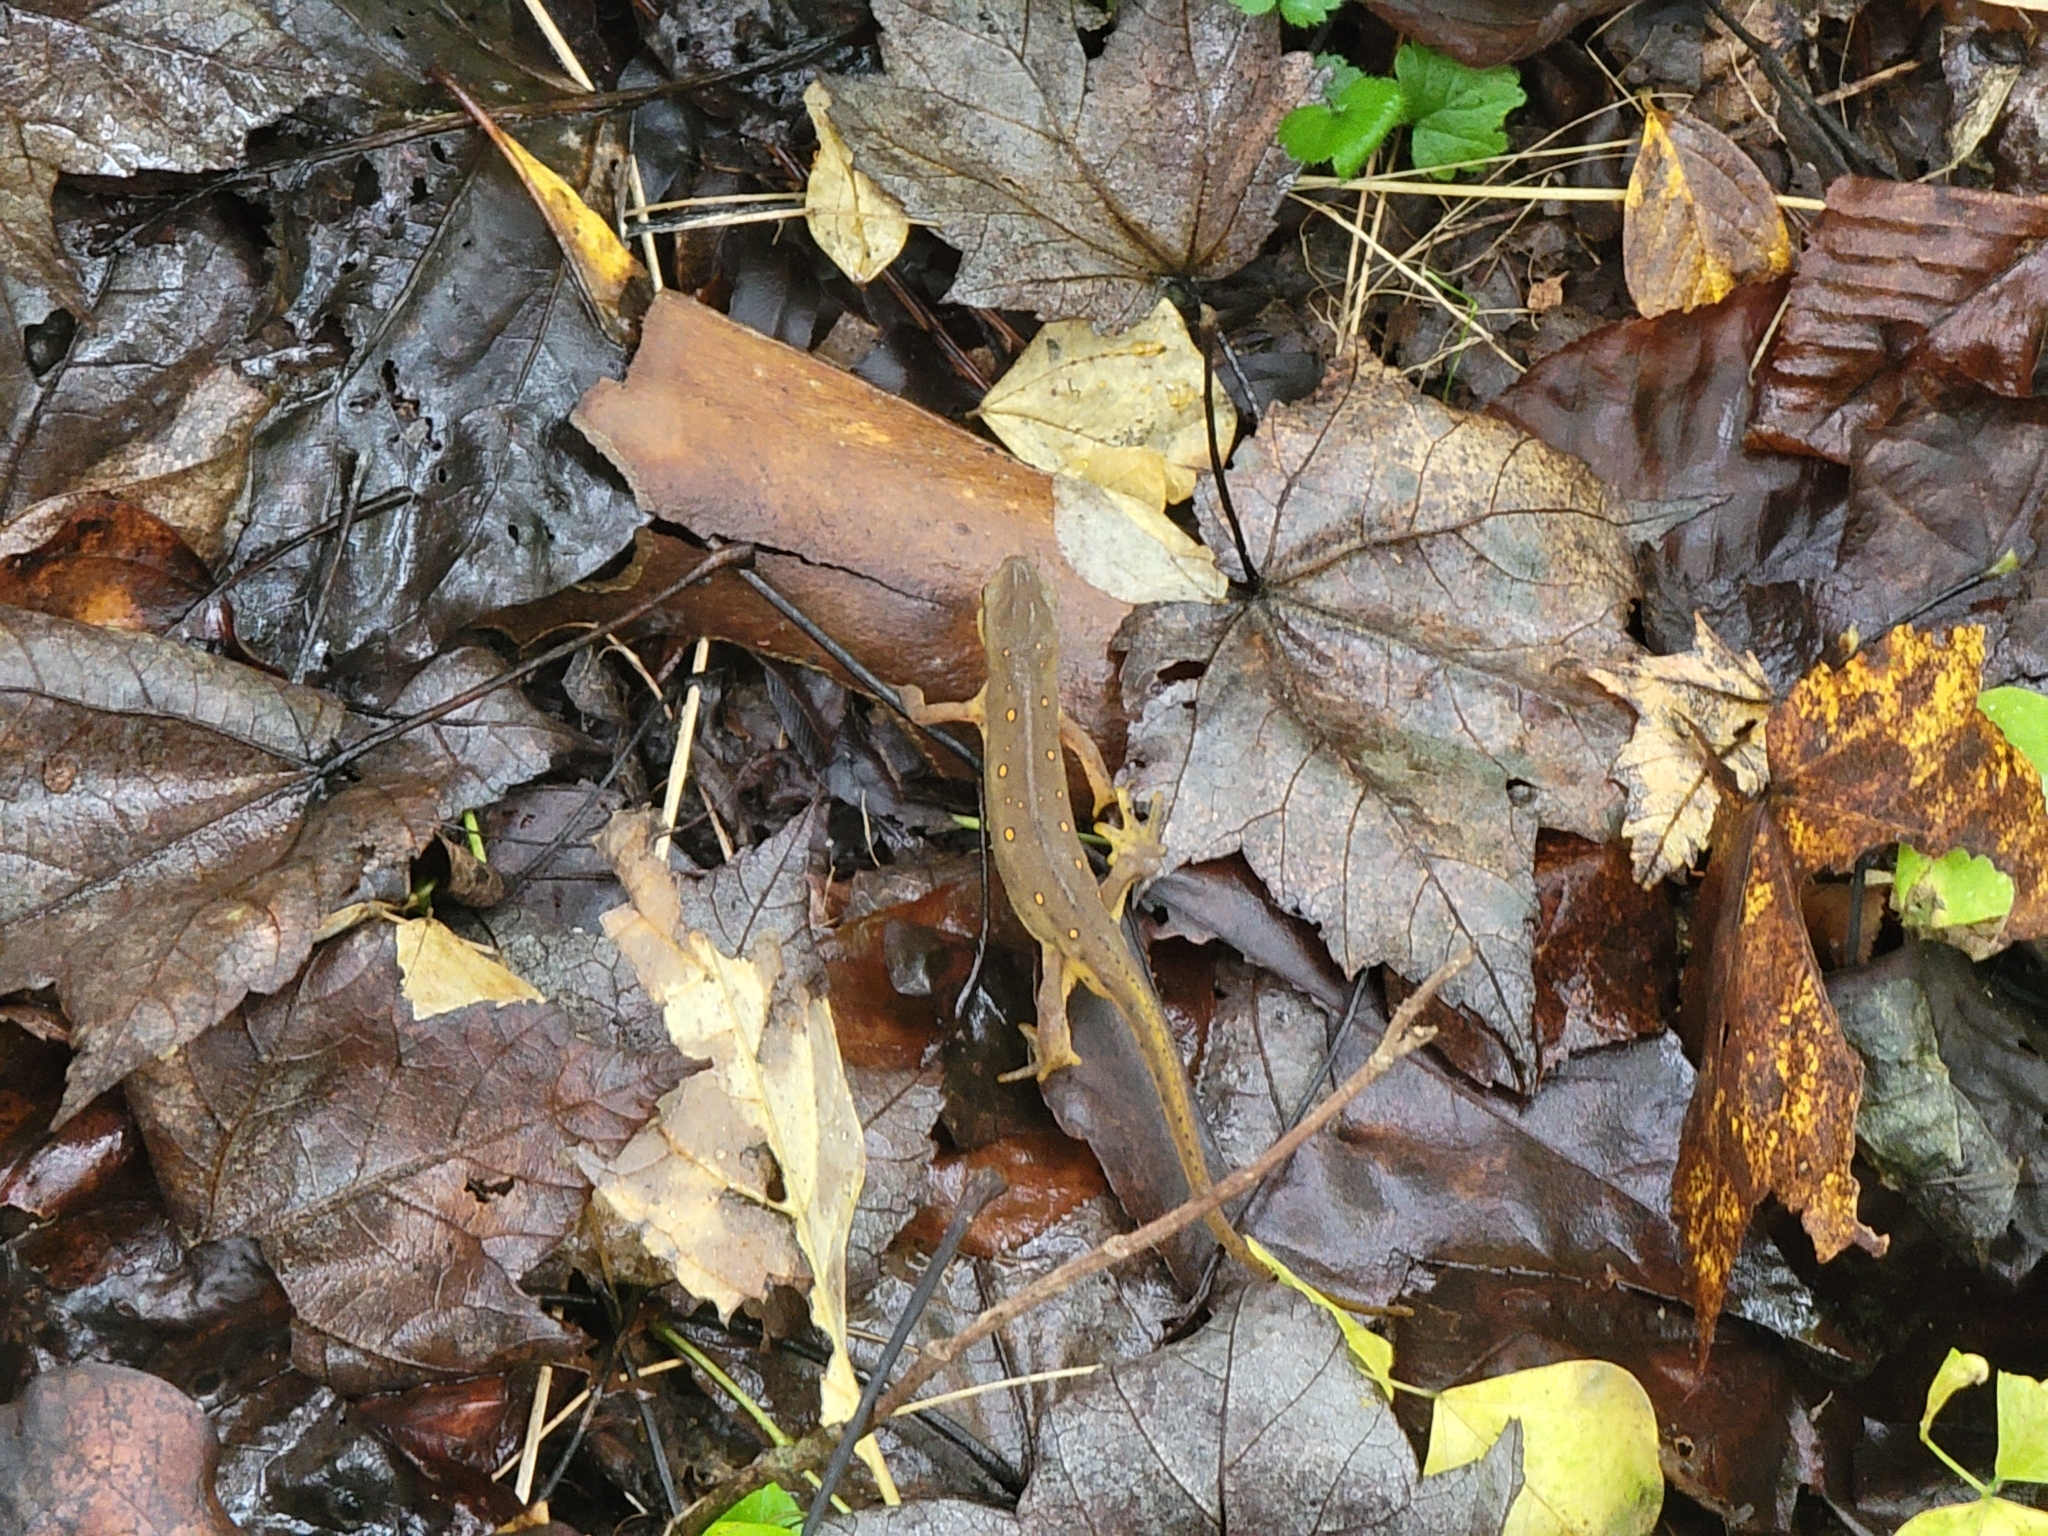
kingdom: Animalia
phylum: Chordata
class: Amphibia
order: Caudata
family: Salamandridae
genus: Notophthalmus
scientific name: Notophthalmus viridescens
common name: Eastern newt
